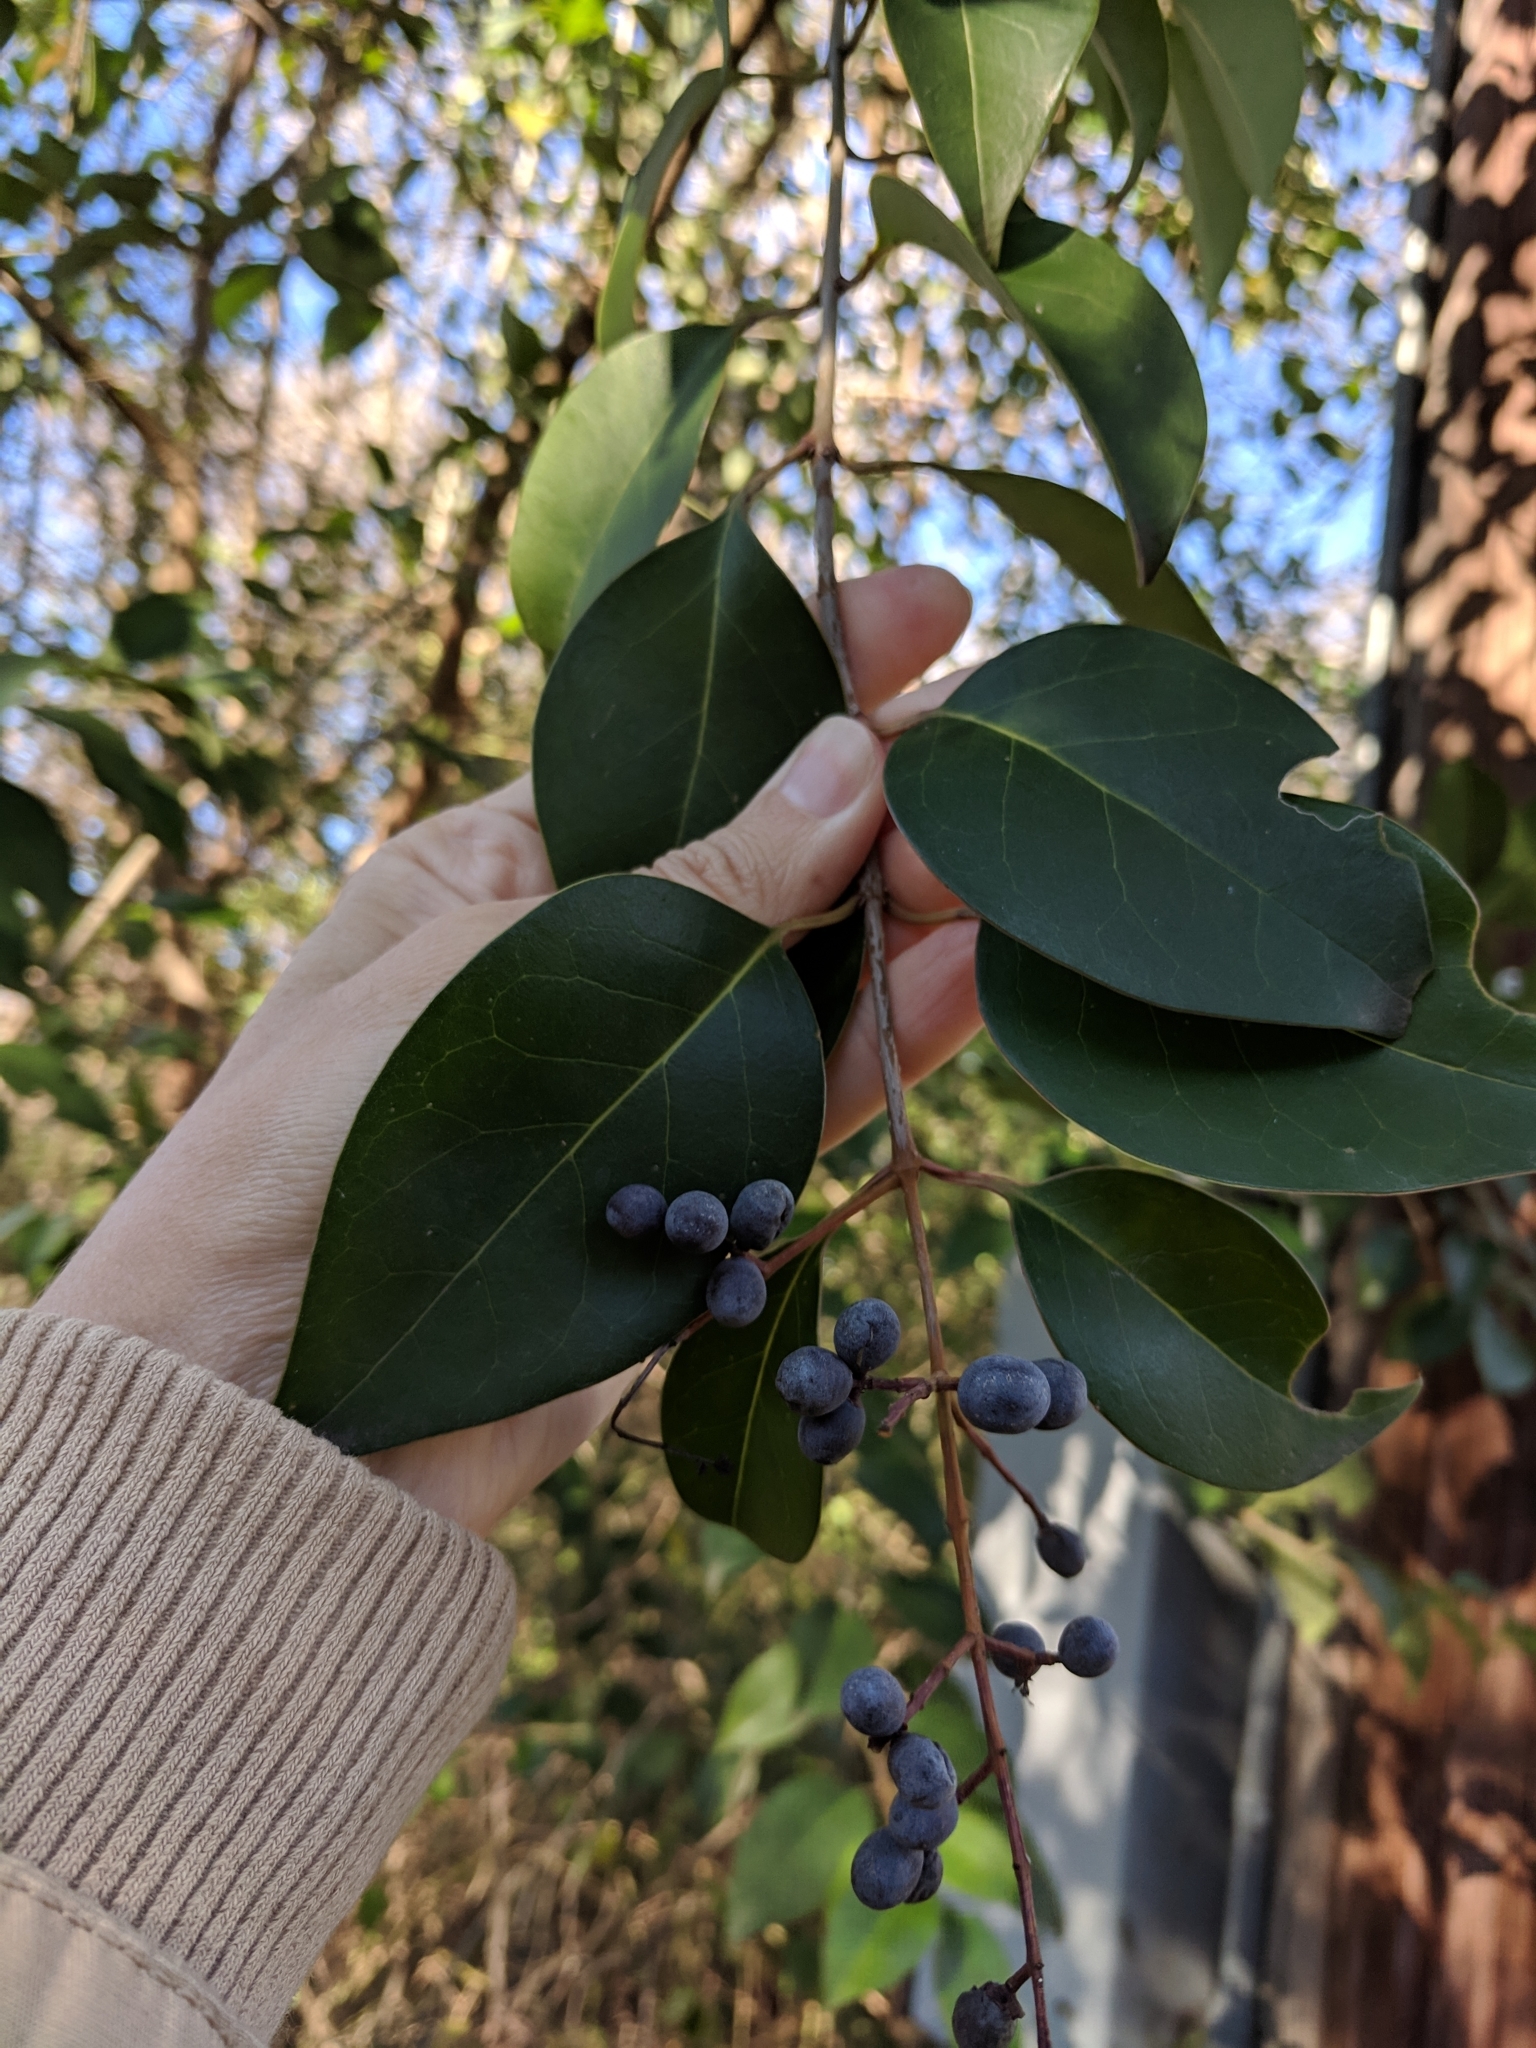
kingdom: Plantae
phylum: Tracheophyta
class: Magnoliopsida
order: Lamiales
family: Oleaceae
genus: Ligustrum
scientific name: Ligustrum lucidum
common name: Glossy privet
